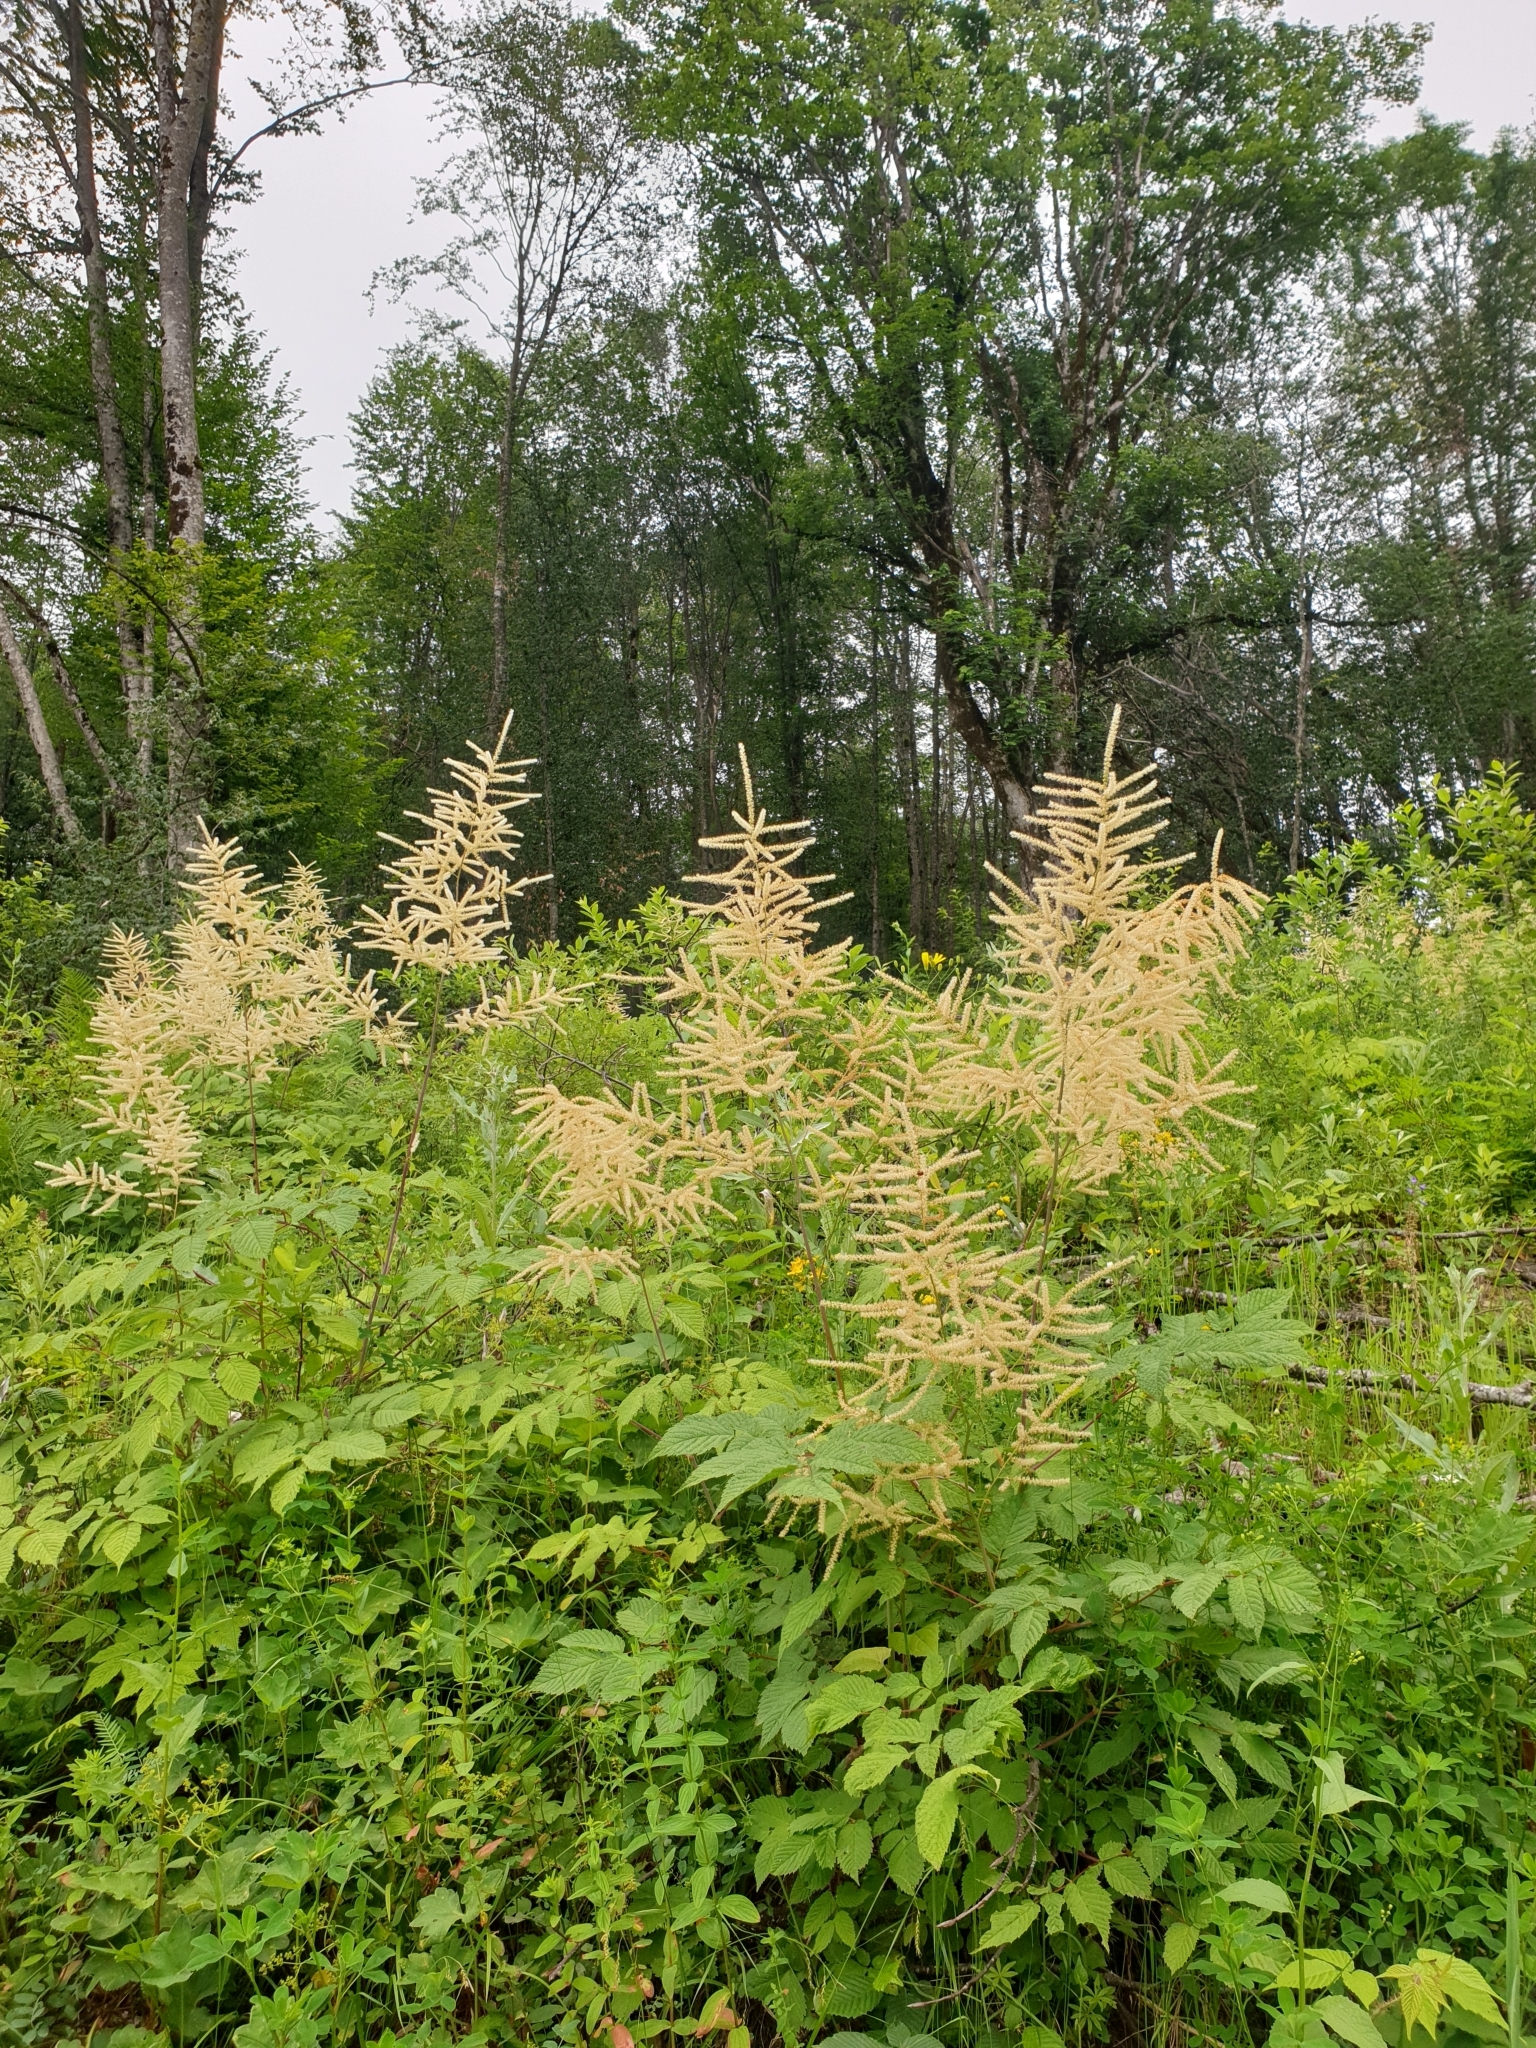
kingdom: Plantae
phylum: Tracheophyta
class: Magnoliopsida
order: Rosales
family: Rosaceae
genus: Aruncus
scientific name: Aruncus dioicus
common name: Buck's-beard
